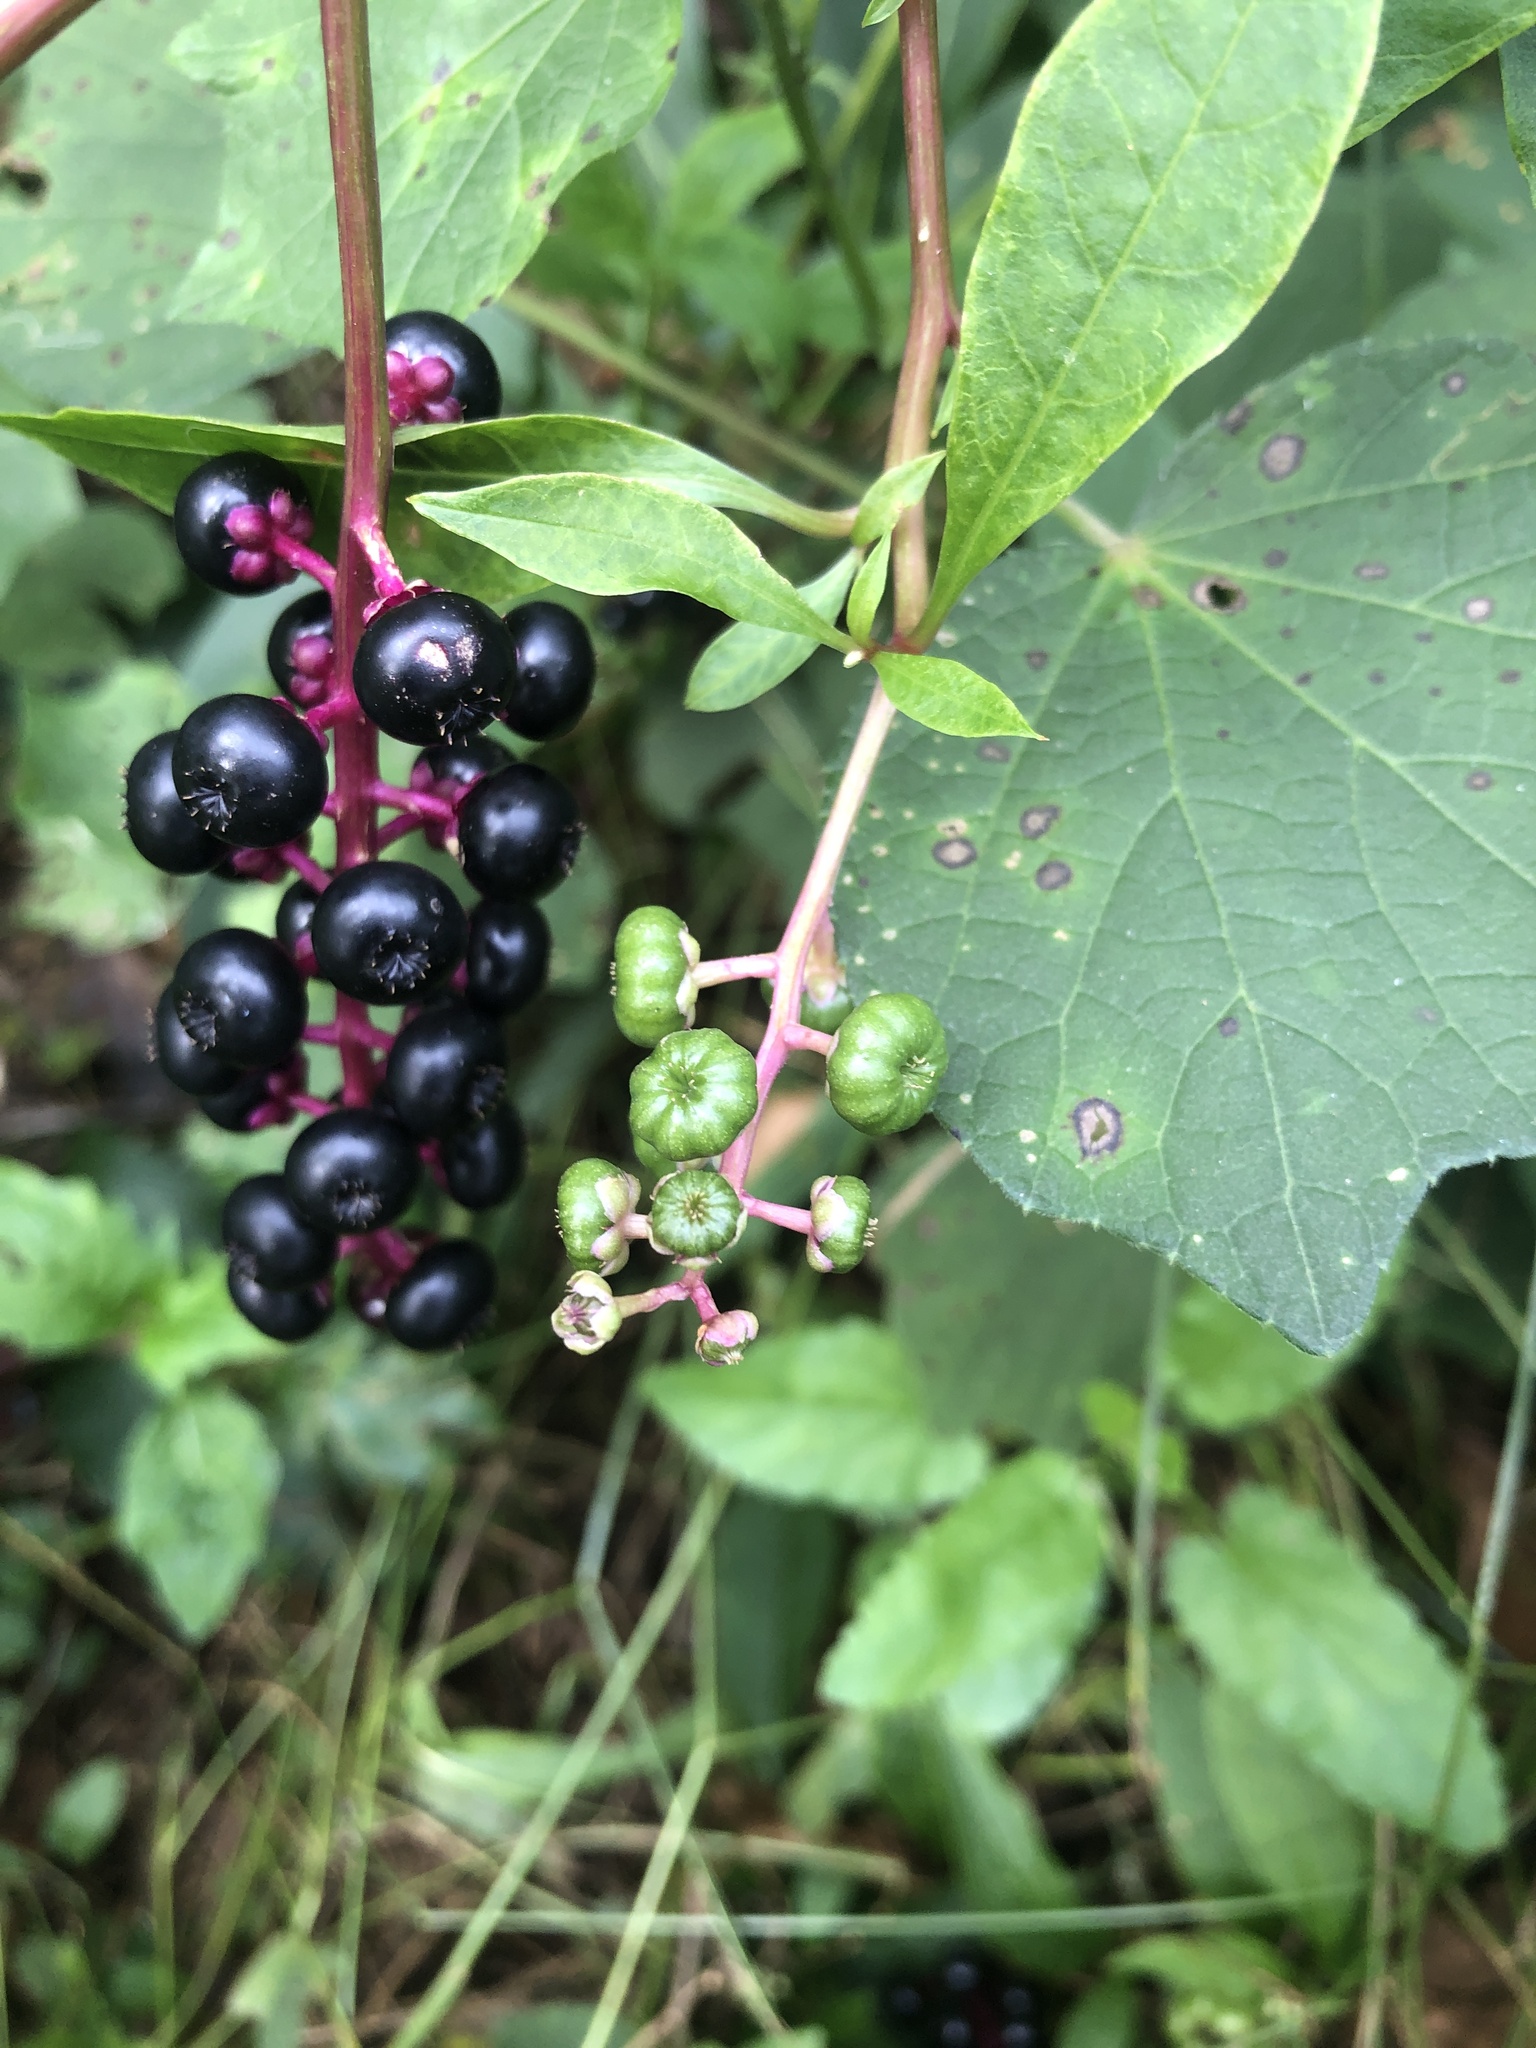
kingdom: Plantae
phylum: Tracheophyta
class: Magnoliopsida
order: Caryophyllales
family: Phytolaccaceae
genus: Phytolacca
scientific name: Phytolacca americana
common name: American pokeweed
